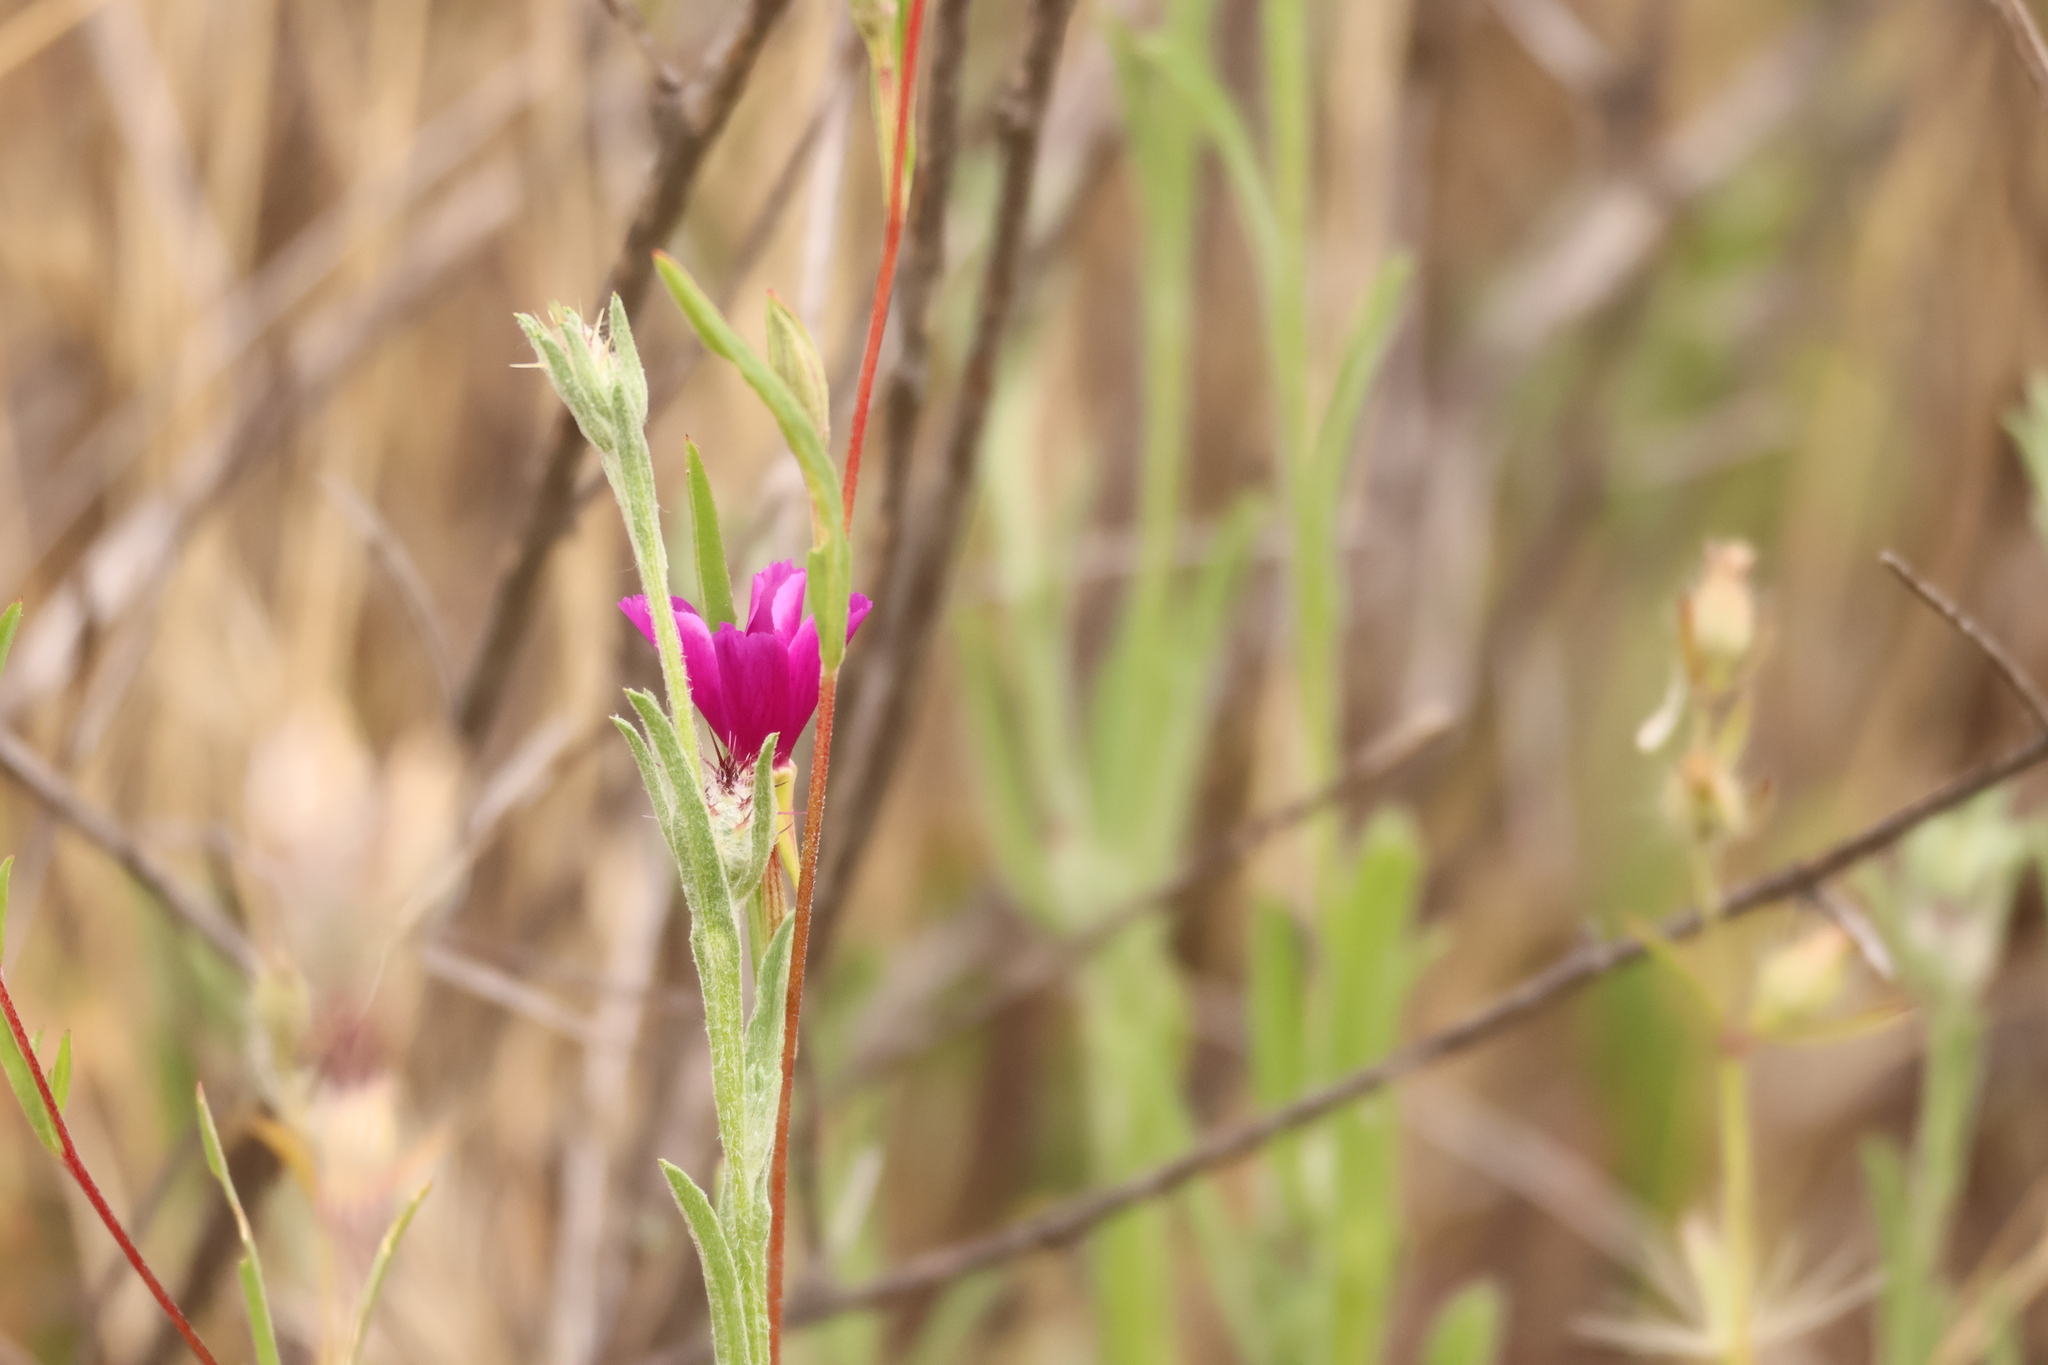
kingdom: Plantae
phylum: Tracheophyta
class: Magnoliopsida
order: Myrtales
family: Onagraceae
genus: Clarkia
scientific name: Clarkia purpurea
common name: Purple clarkia
